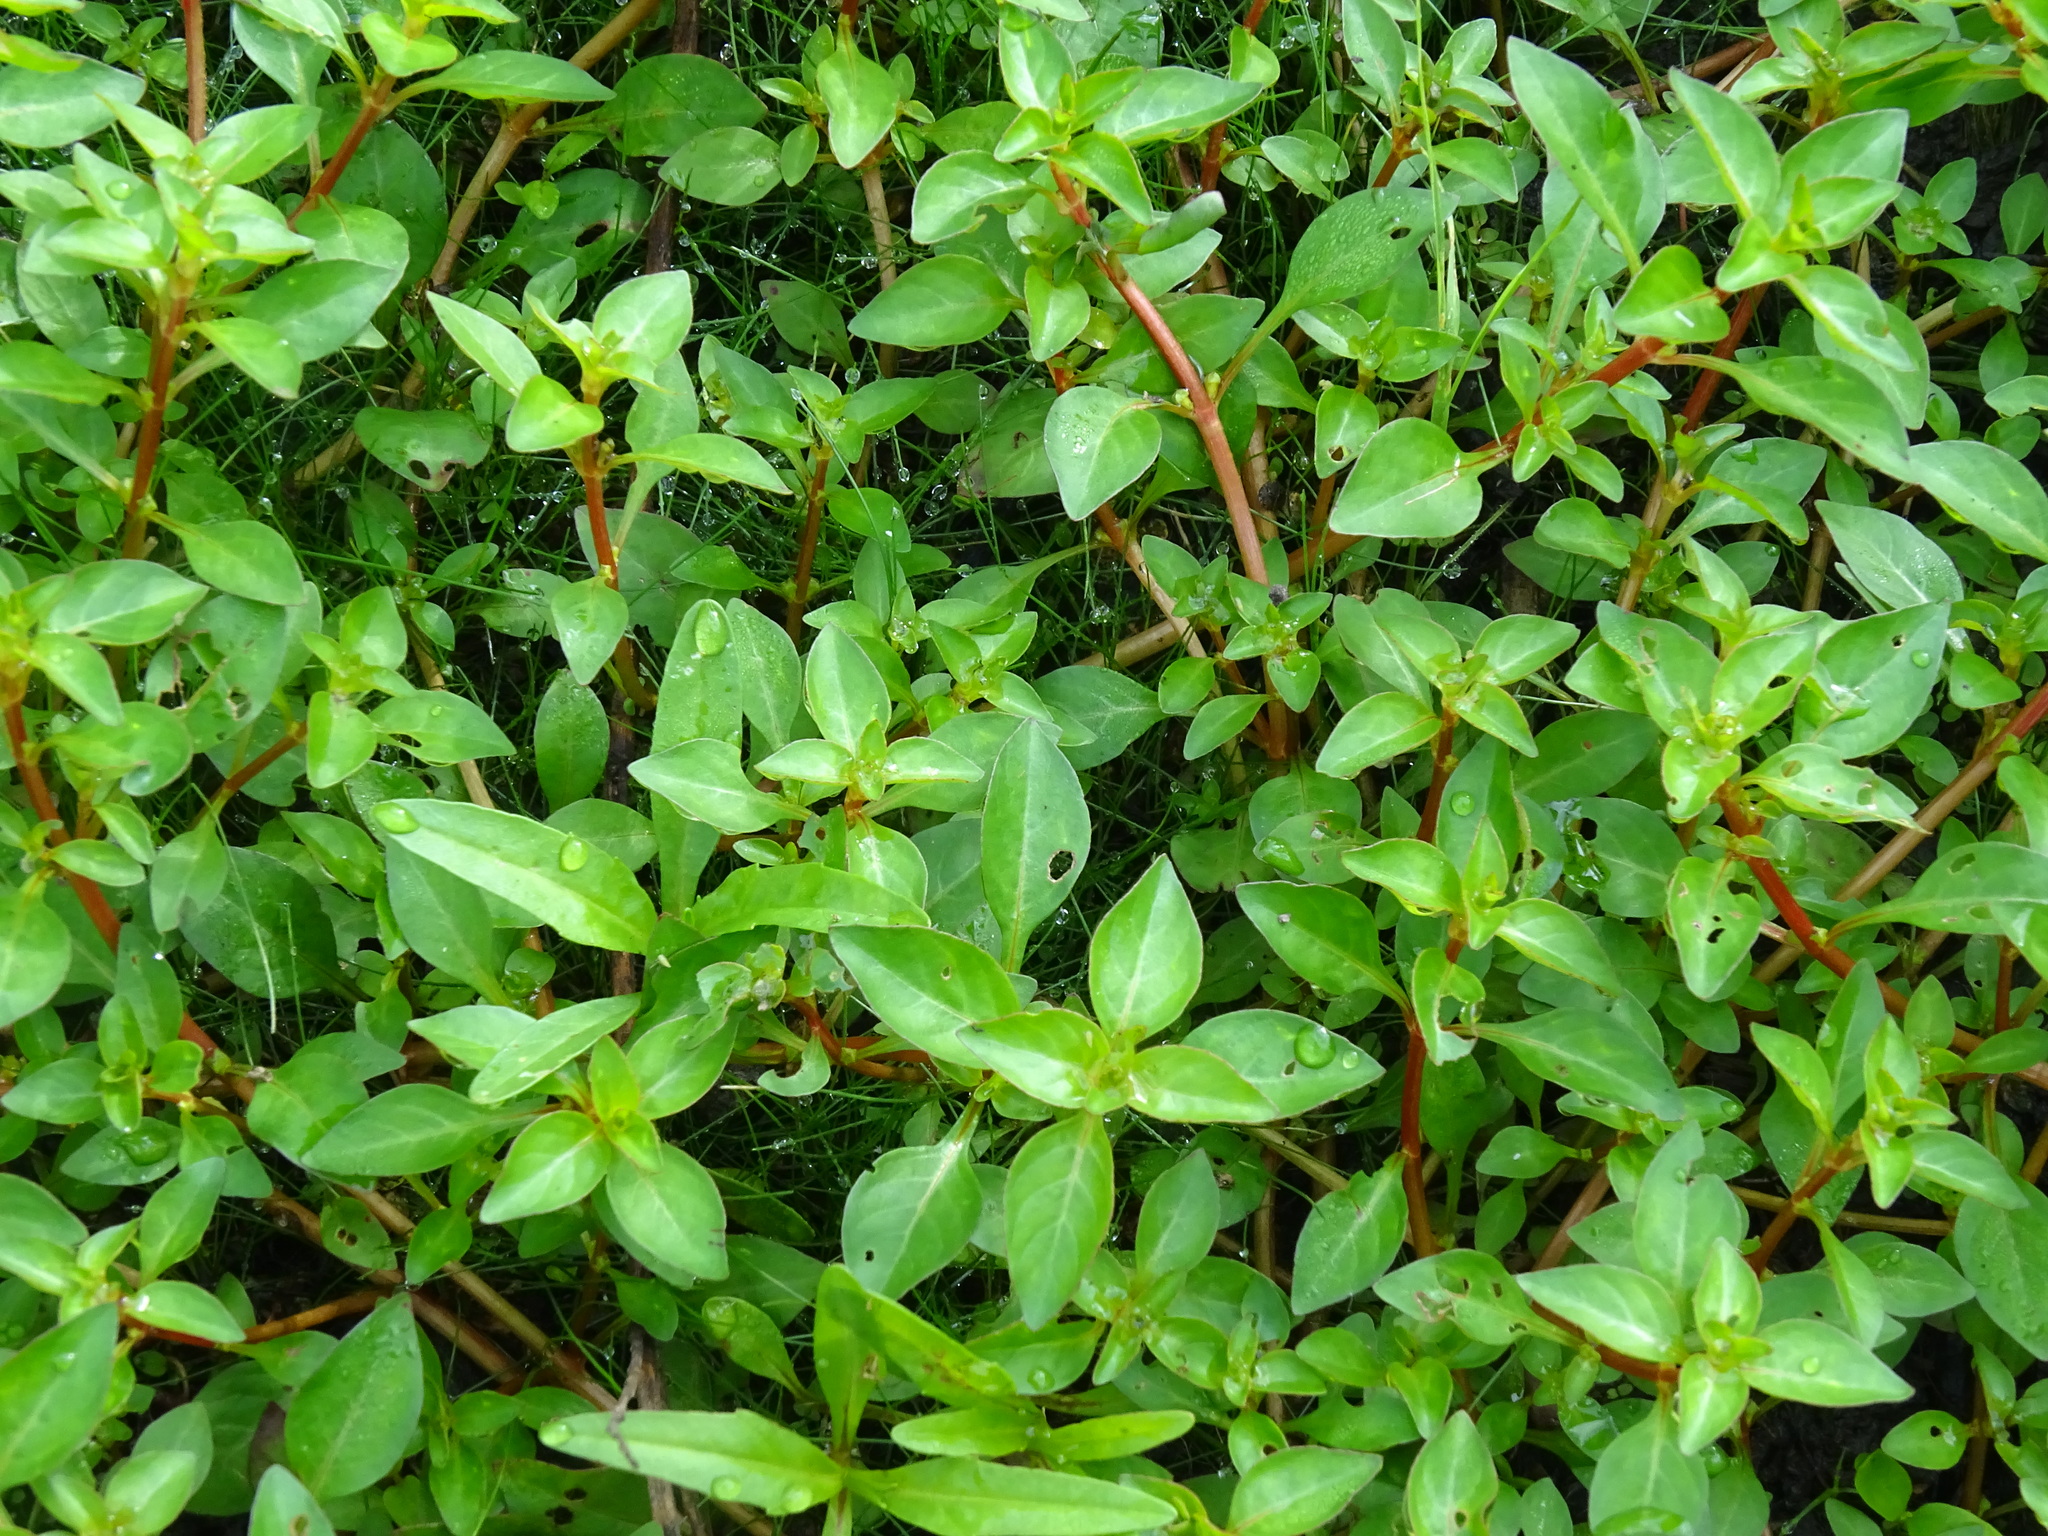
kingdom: Plantae
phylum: Tracheophyta
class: Magnoliopsida
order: Myrtales
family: Onagraceae
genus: Ludwigia
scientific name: Ludwigia palustris
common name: Hampshire-purslane
